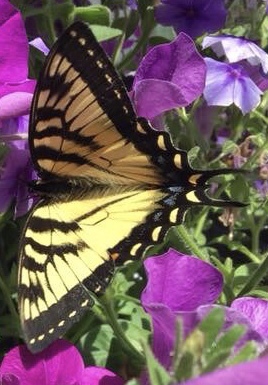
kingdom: Animalia
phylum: Arthropoda
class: Insecta
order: Lepidoptera
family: Papilionidae
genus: Papilio
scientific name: Papilio canadensis
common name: Canadian tiger swallowtail
